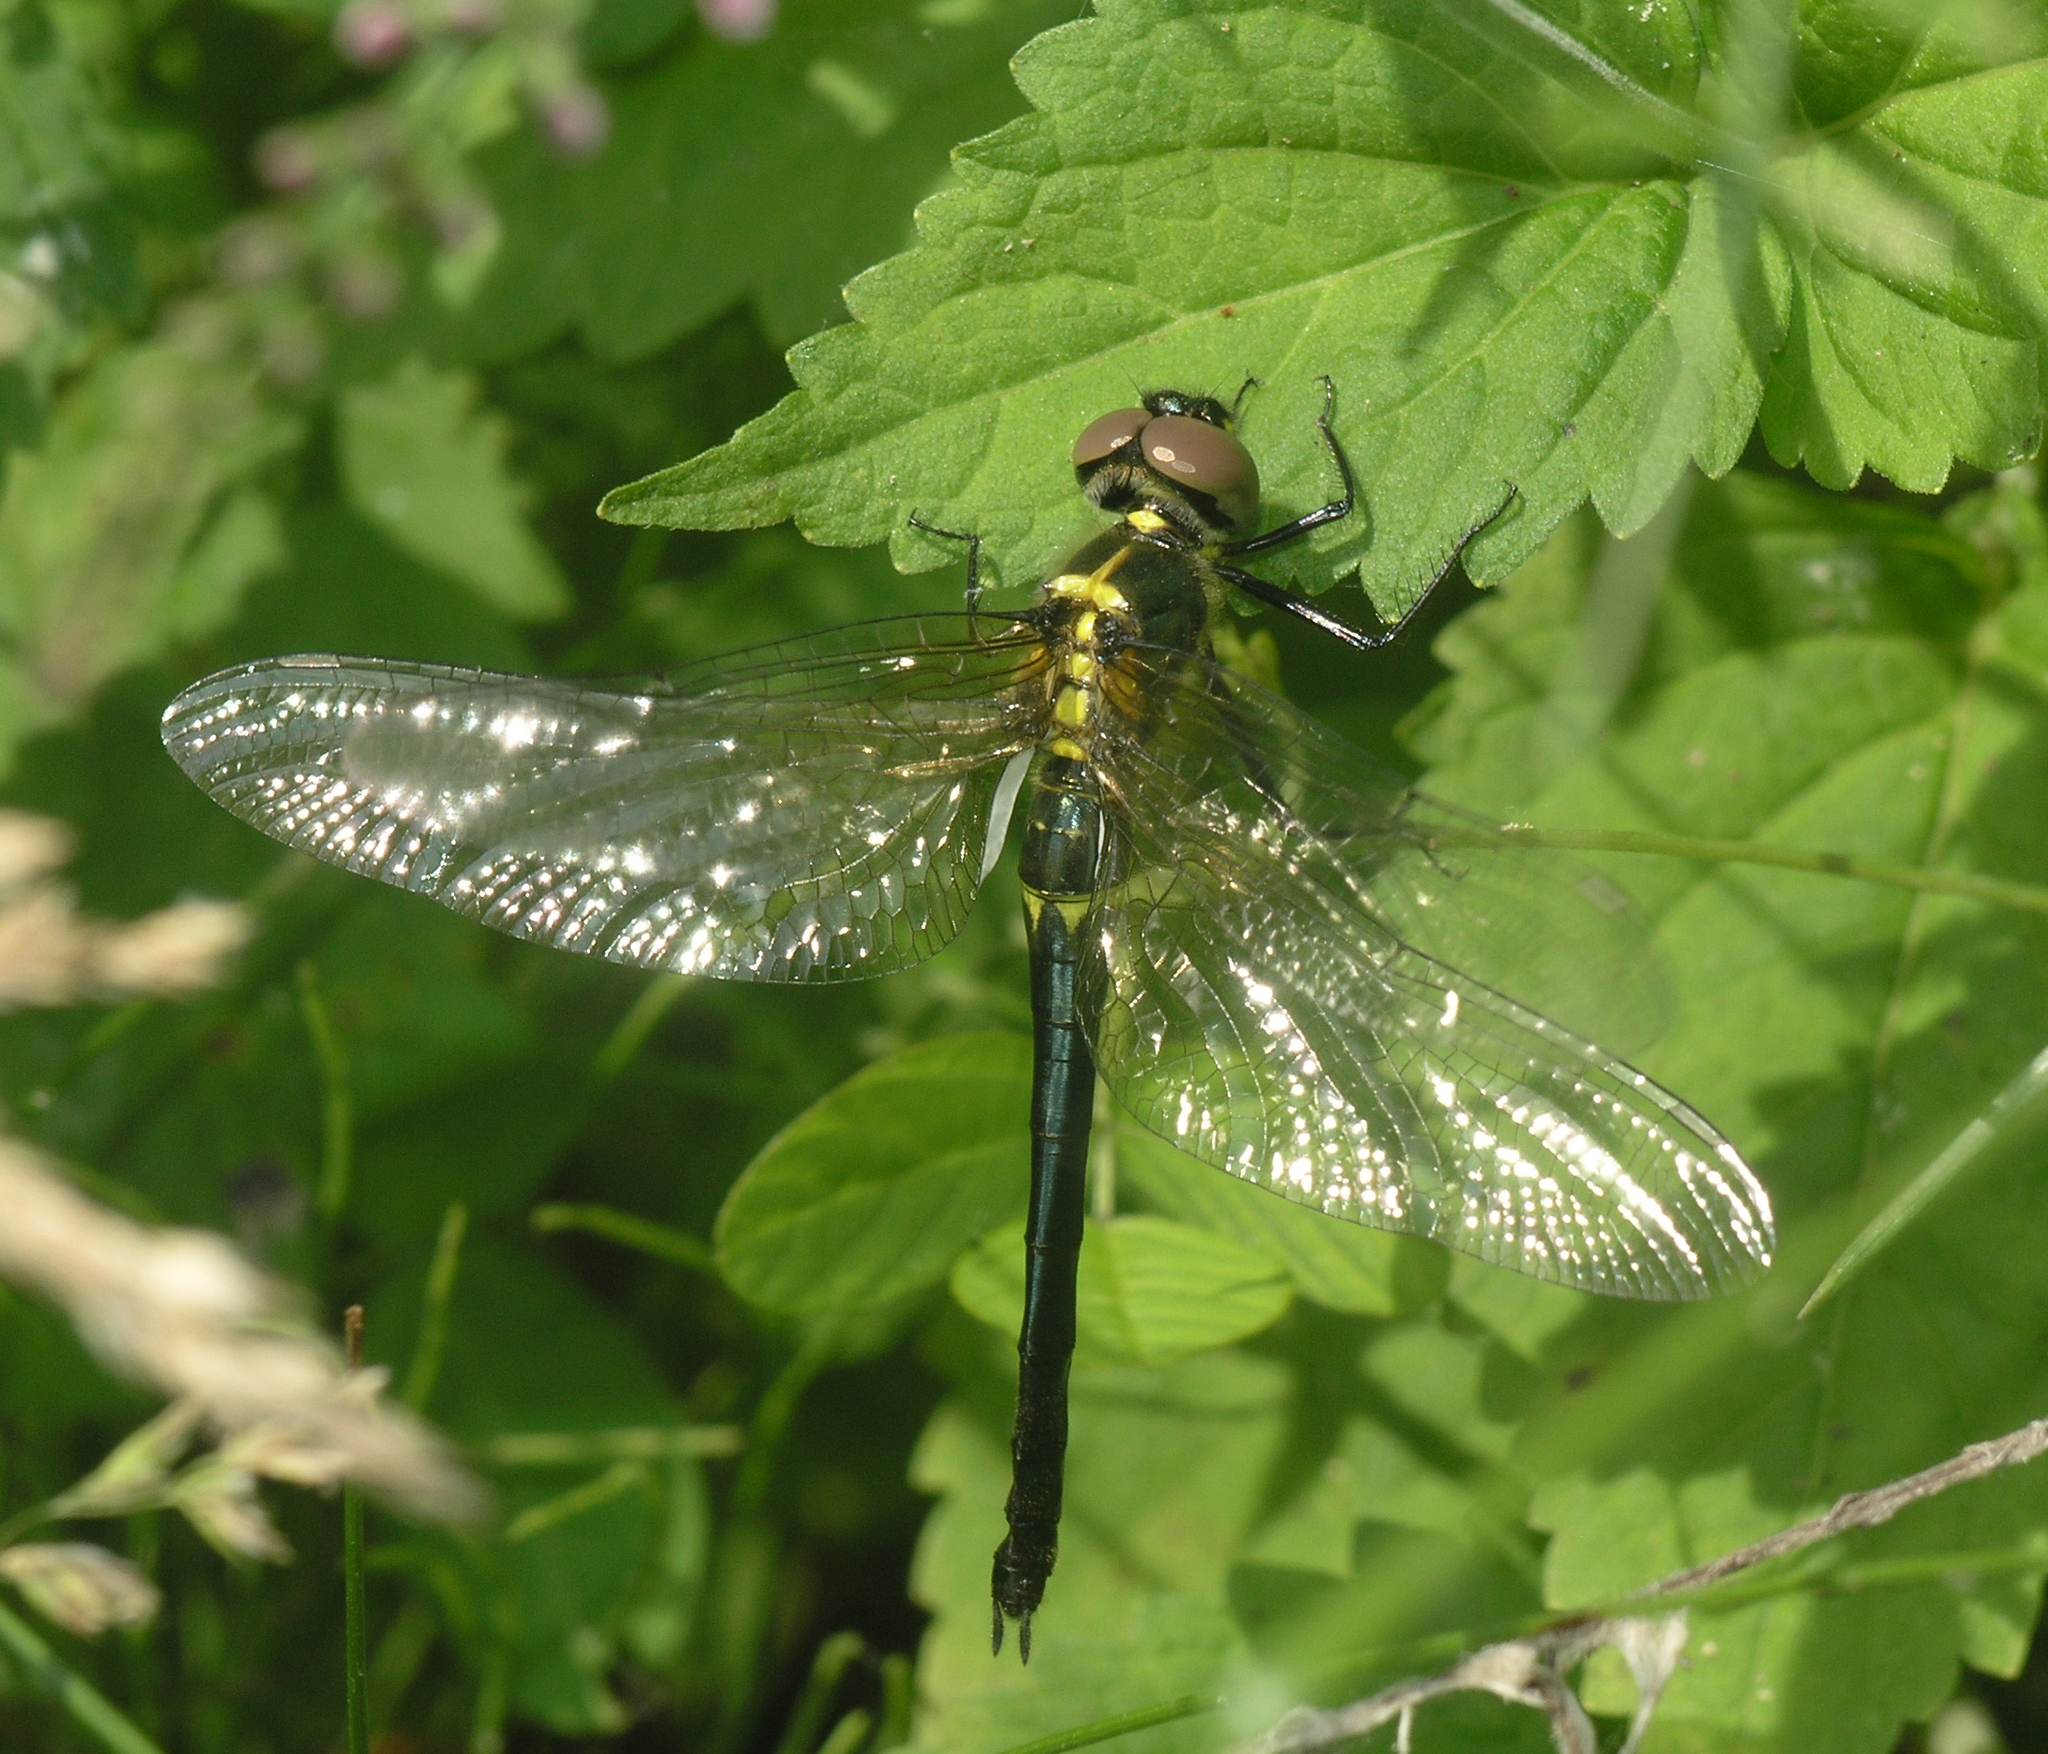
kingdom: Animalia
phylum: Arthropoda
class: Insecta
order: Odonata
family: Corduliidae
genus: Somatochlora
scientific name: Somatochlora graeseri
